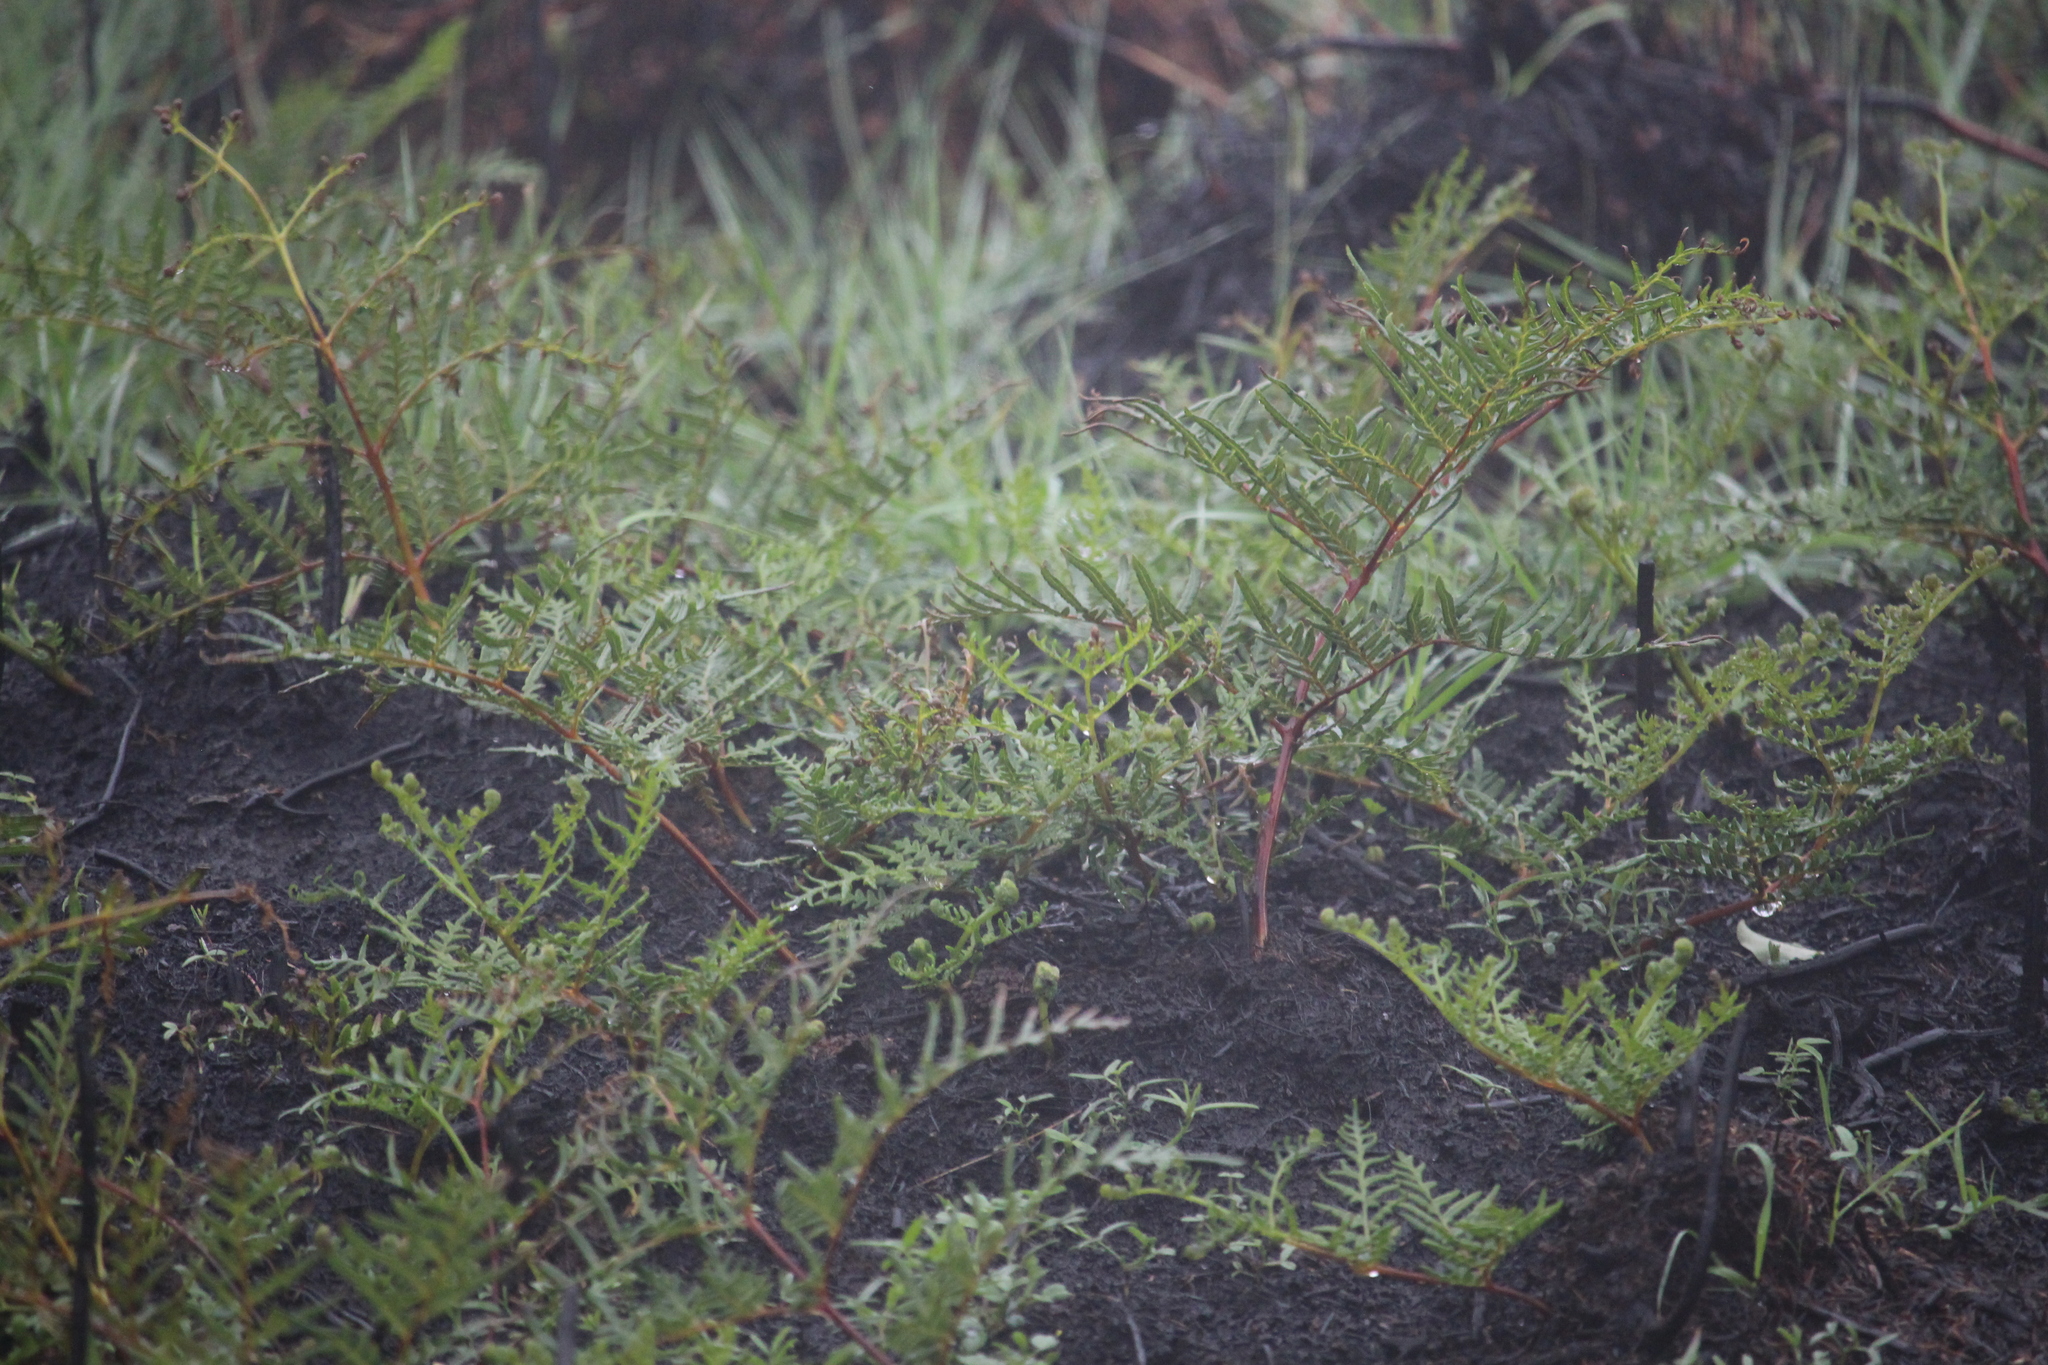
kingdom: Plantae
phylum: Tracheophyta
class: Polypodiopsida
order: Polypodiales
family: Dennstaedtiaceae
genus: Pteridium
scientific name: Pteridium esculentum
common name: Bracken fern
